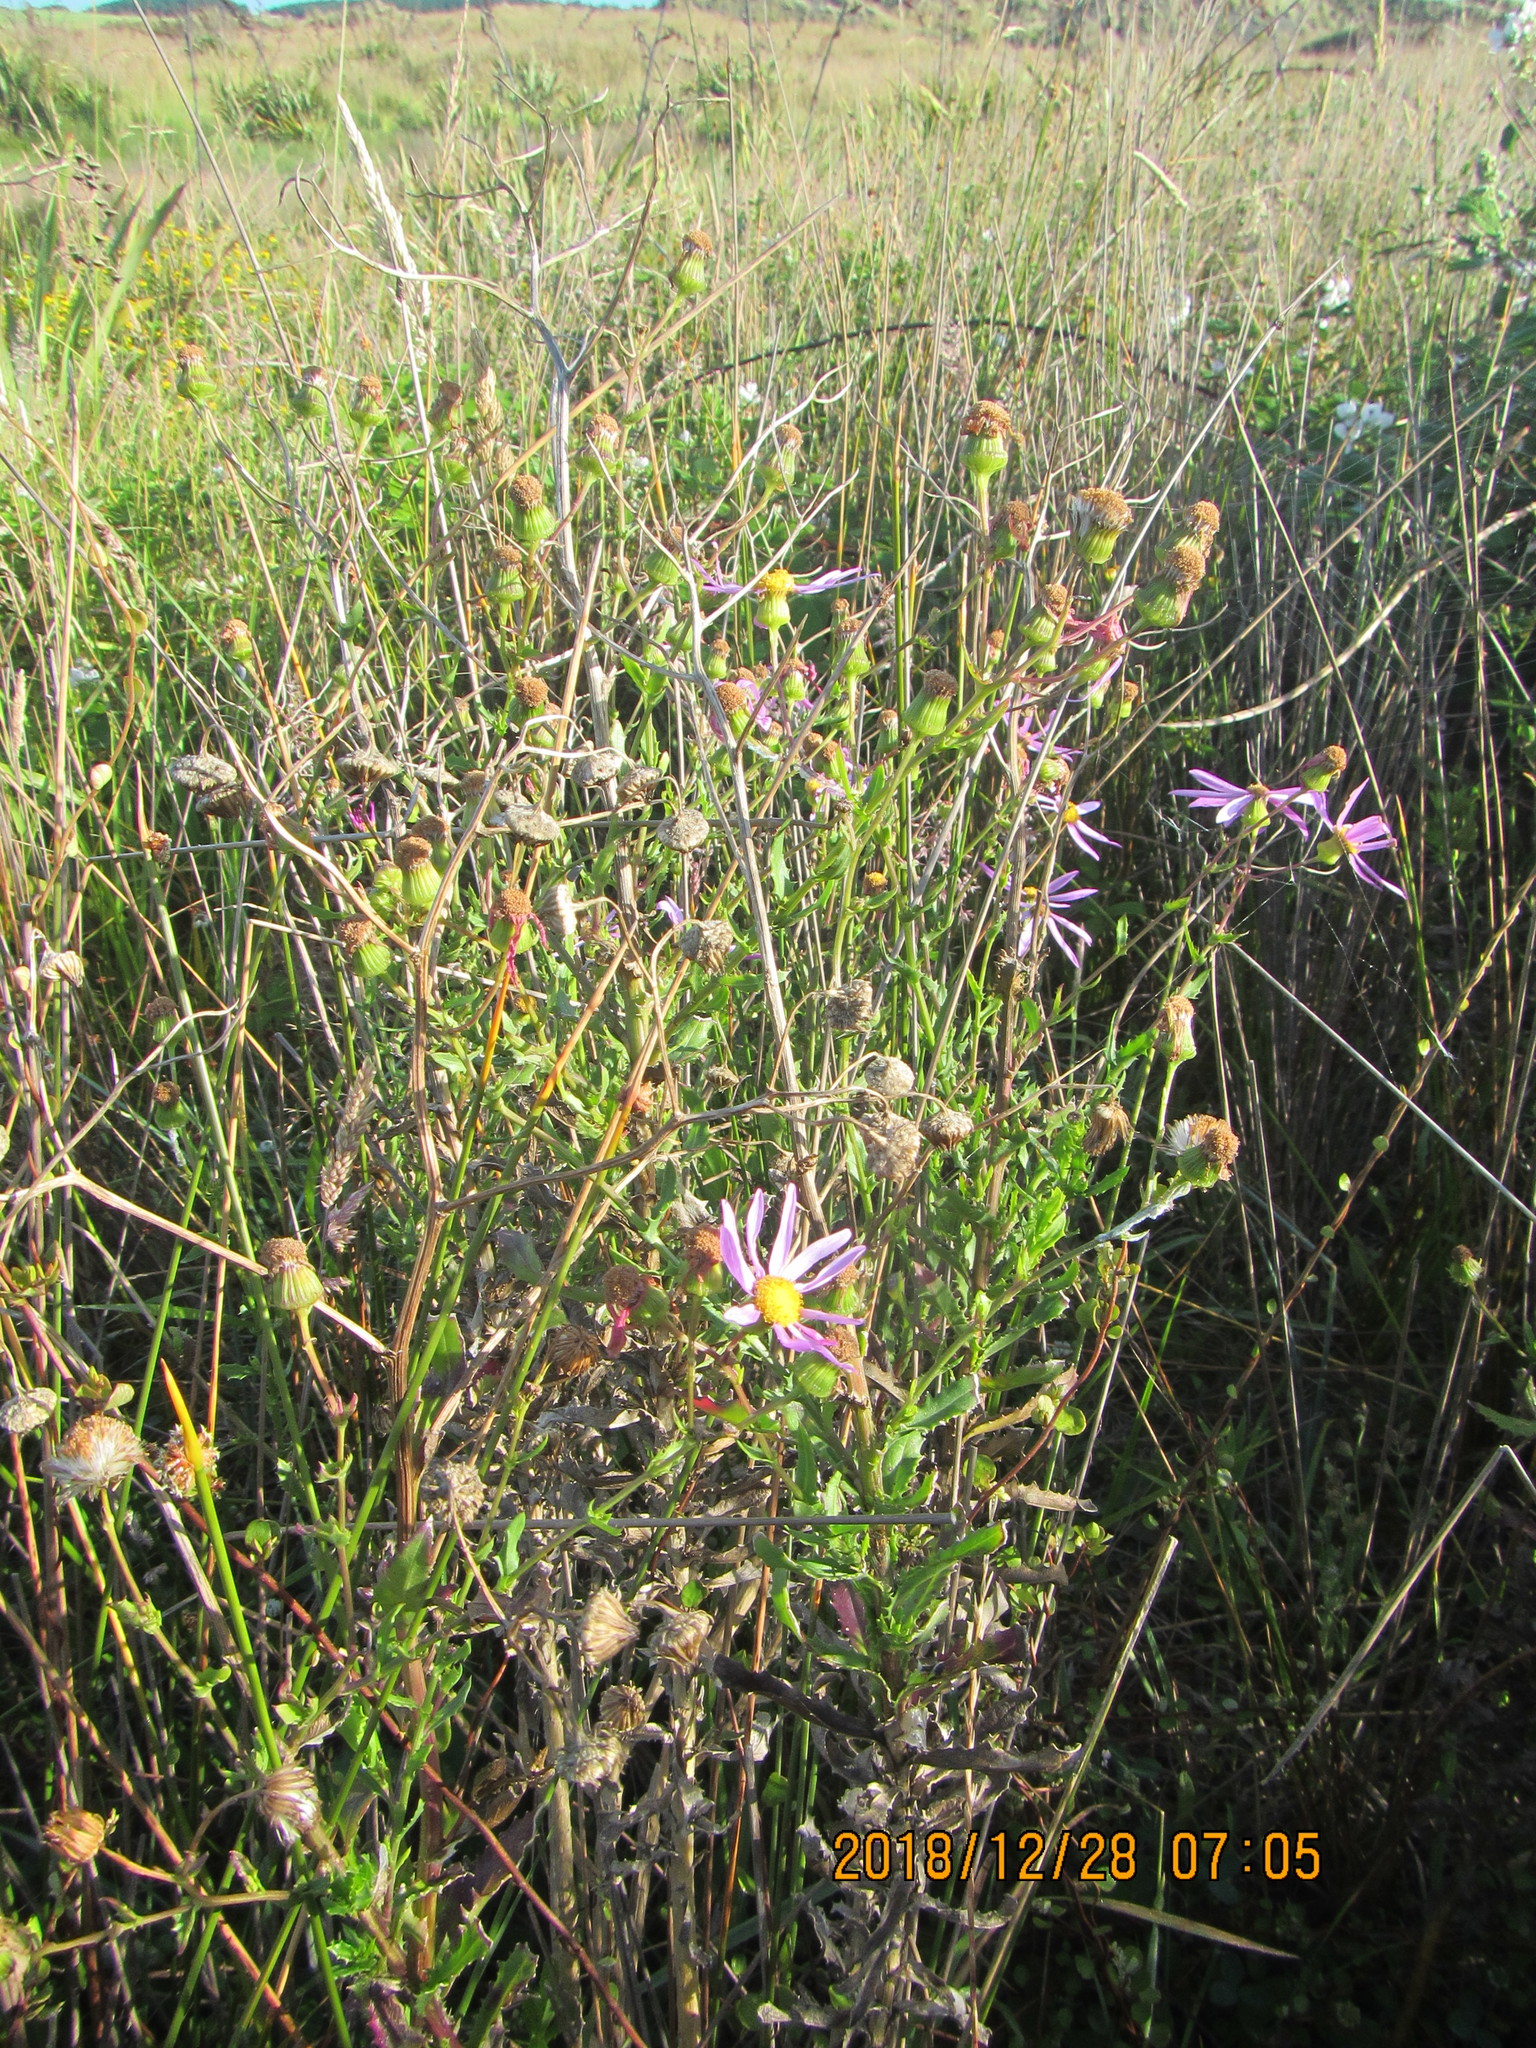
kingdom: Plantae
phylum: Tracheophyta
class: Magnoliopsida
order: Asterales
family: Asteraceae
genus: Senecio
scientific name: Senecio glastifolius
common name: Woad-leaved ragwort
